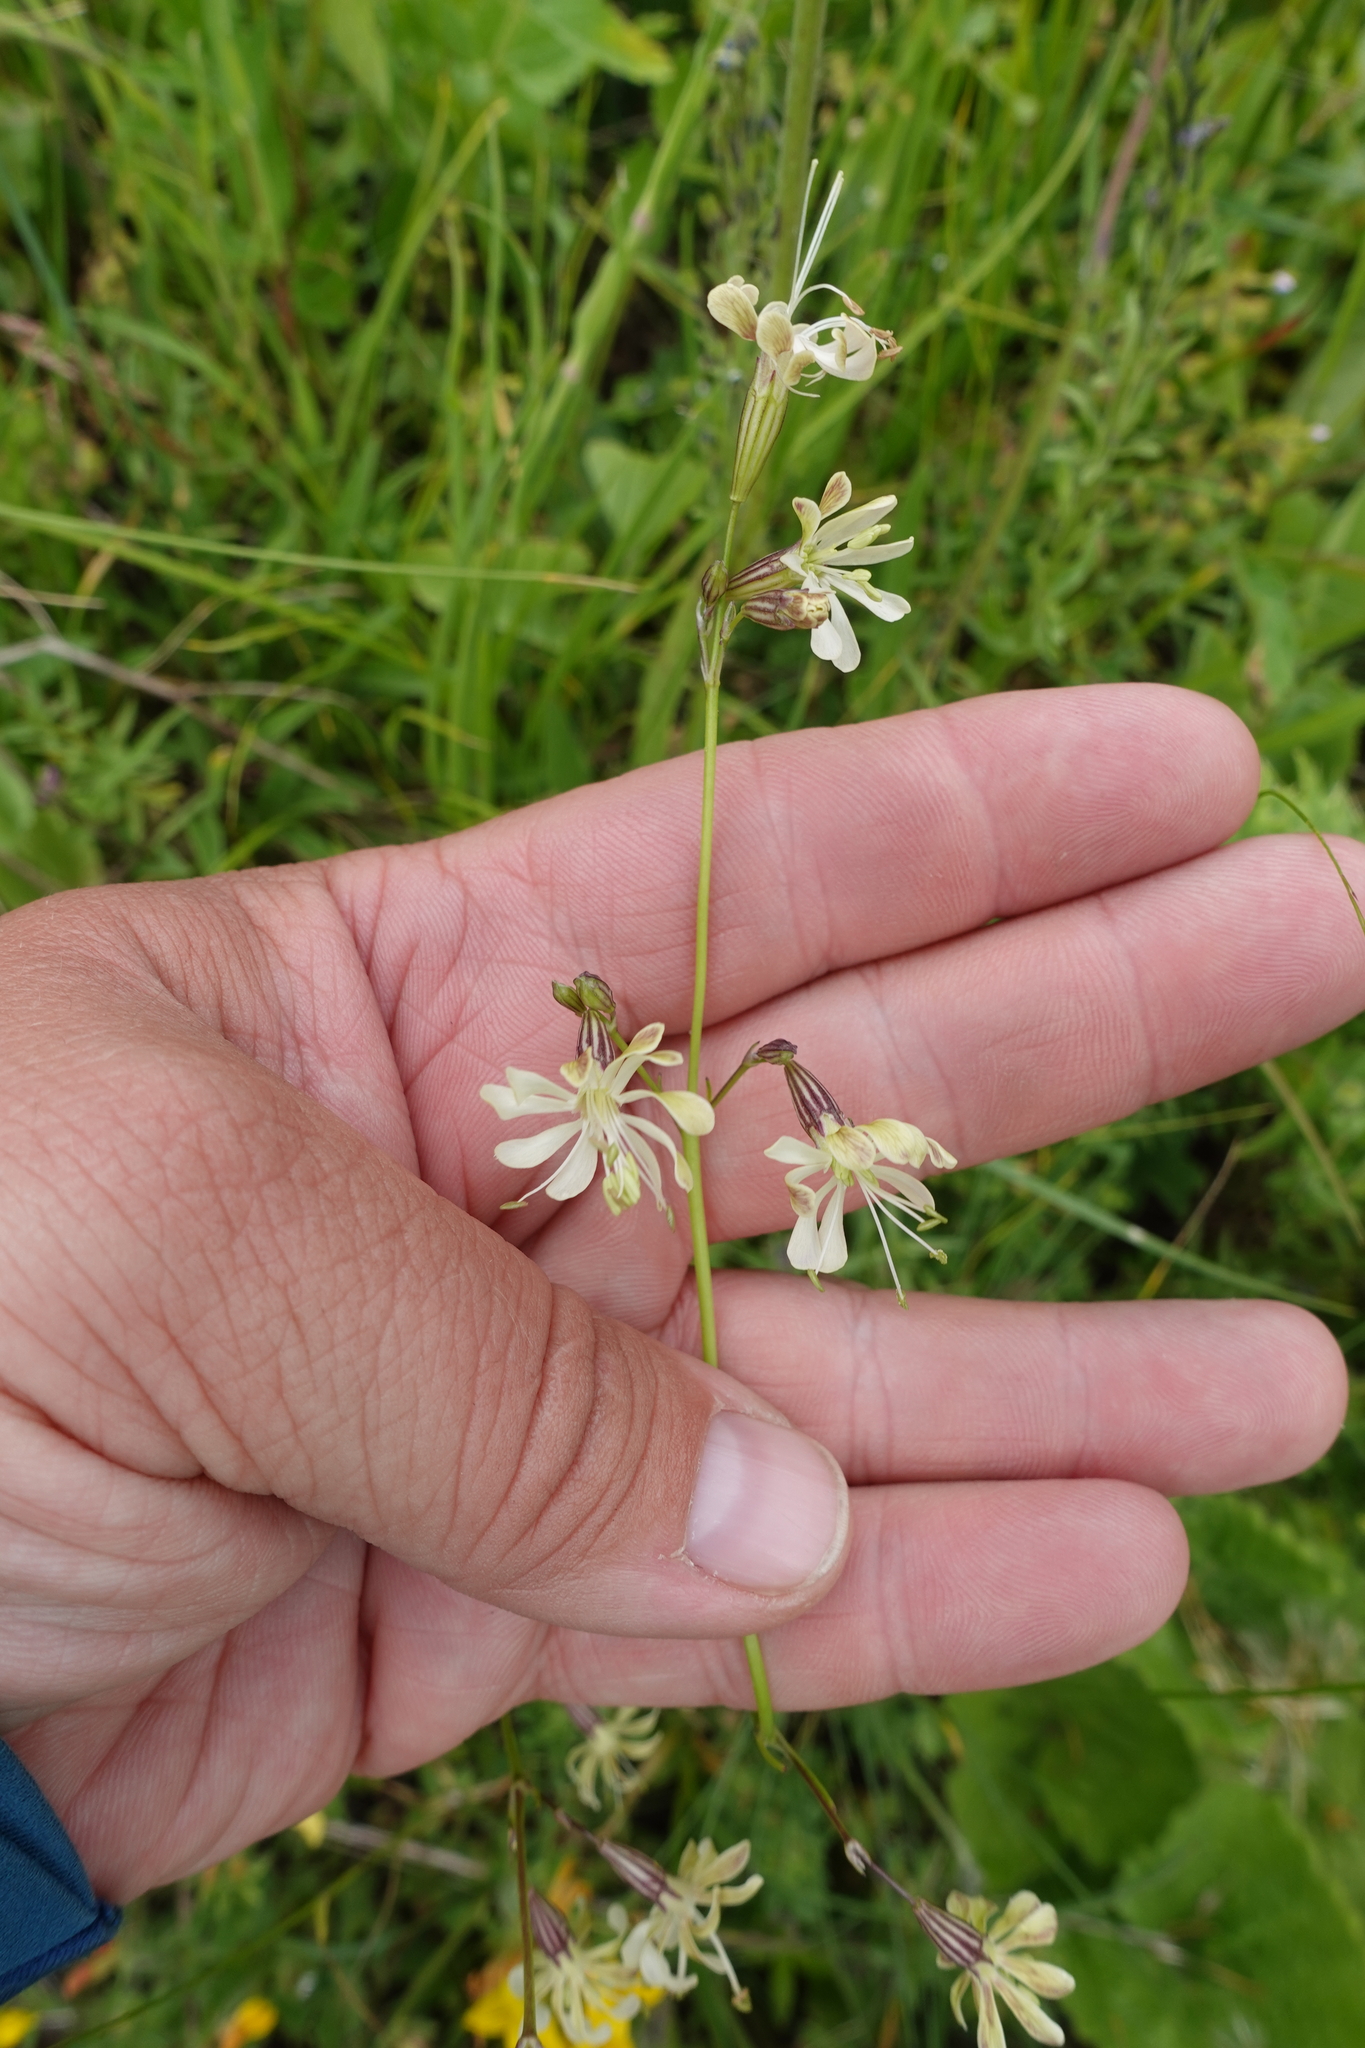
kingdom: Plantae
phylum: Tracheophyta
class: Magnoliopsida
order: Caryophyllales
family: Caryophyllaceae
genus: Silene
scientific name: Silene saxatilis
